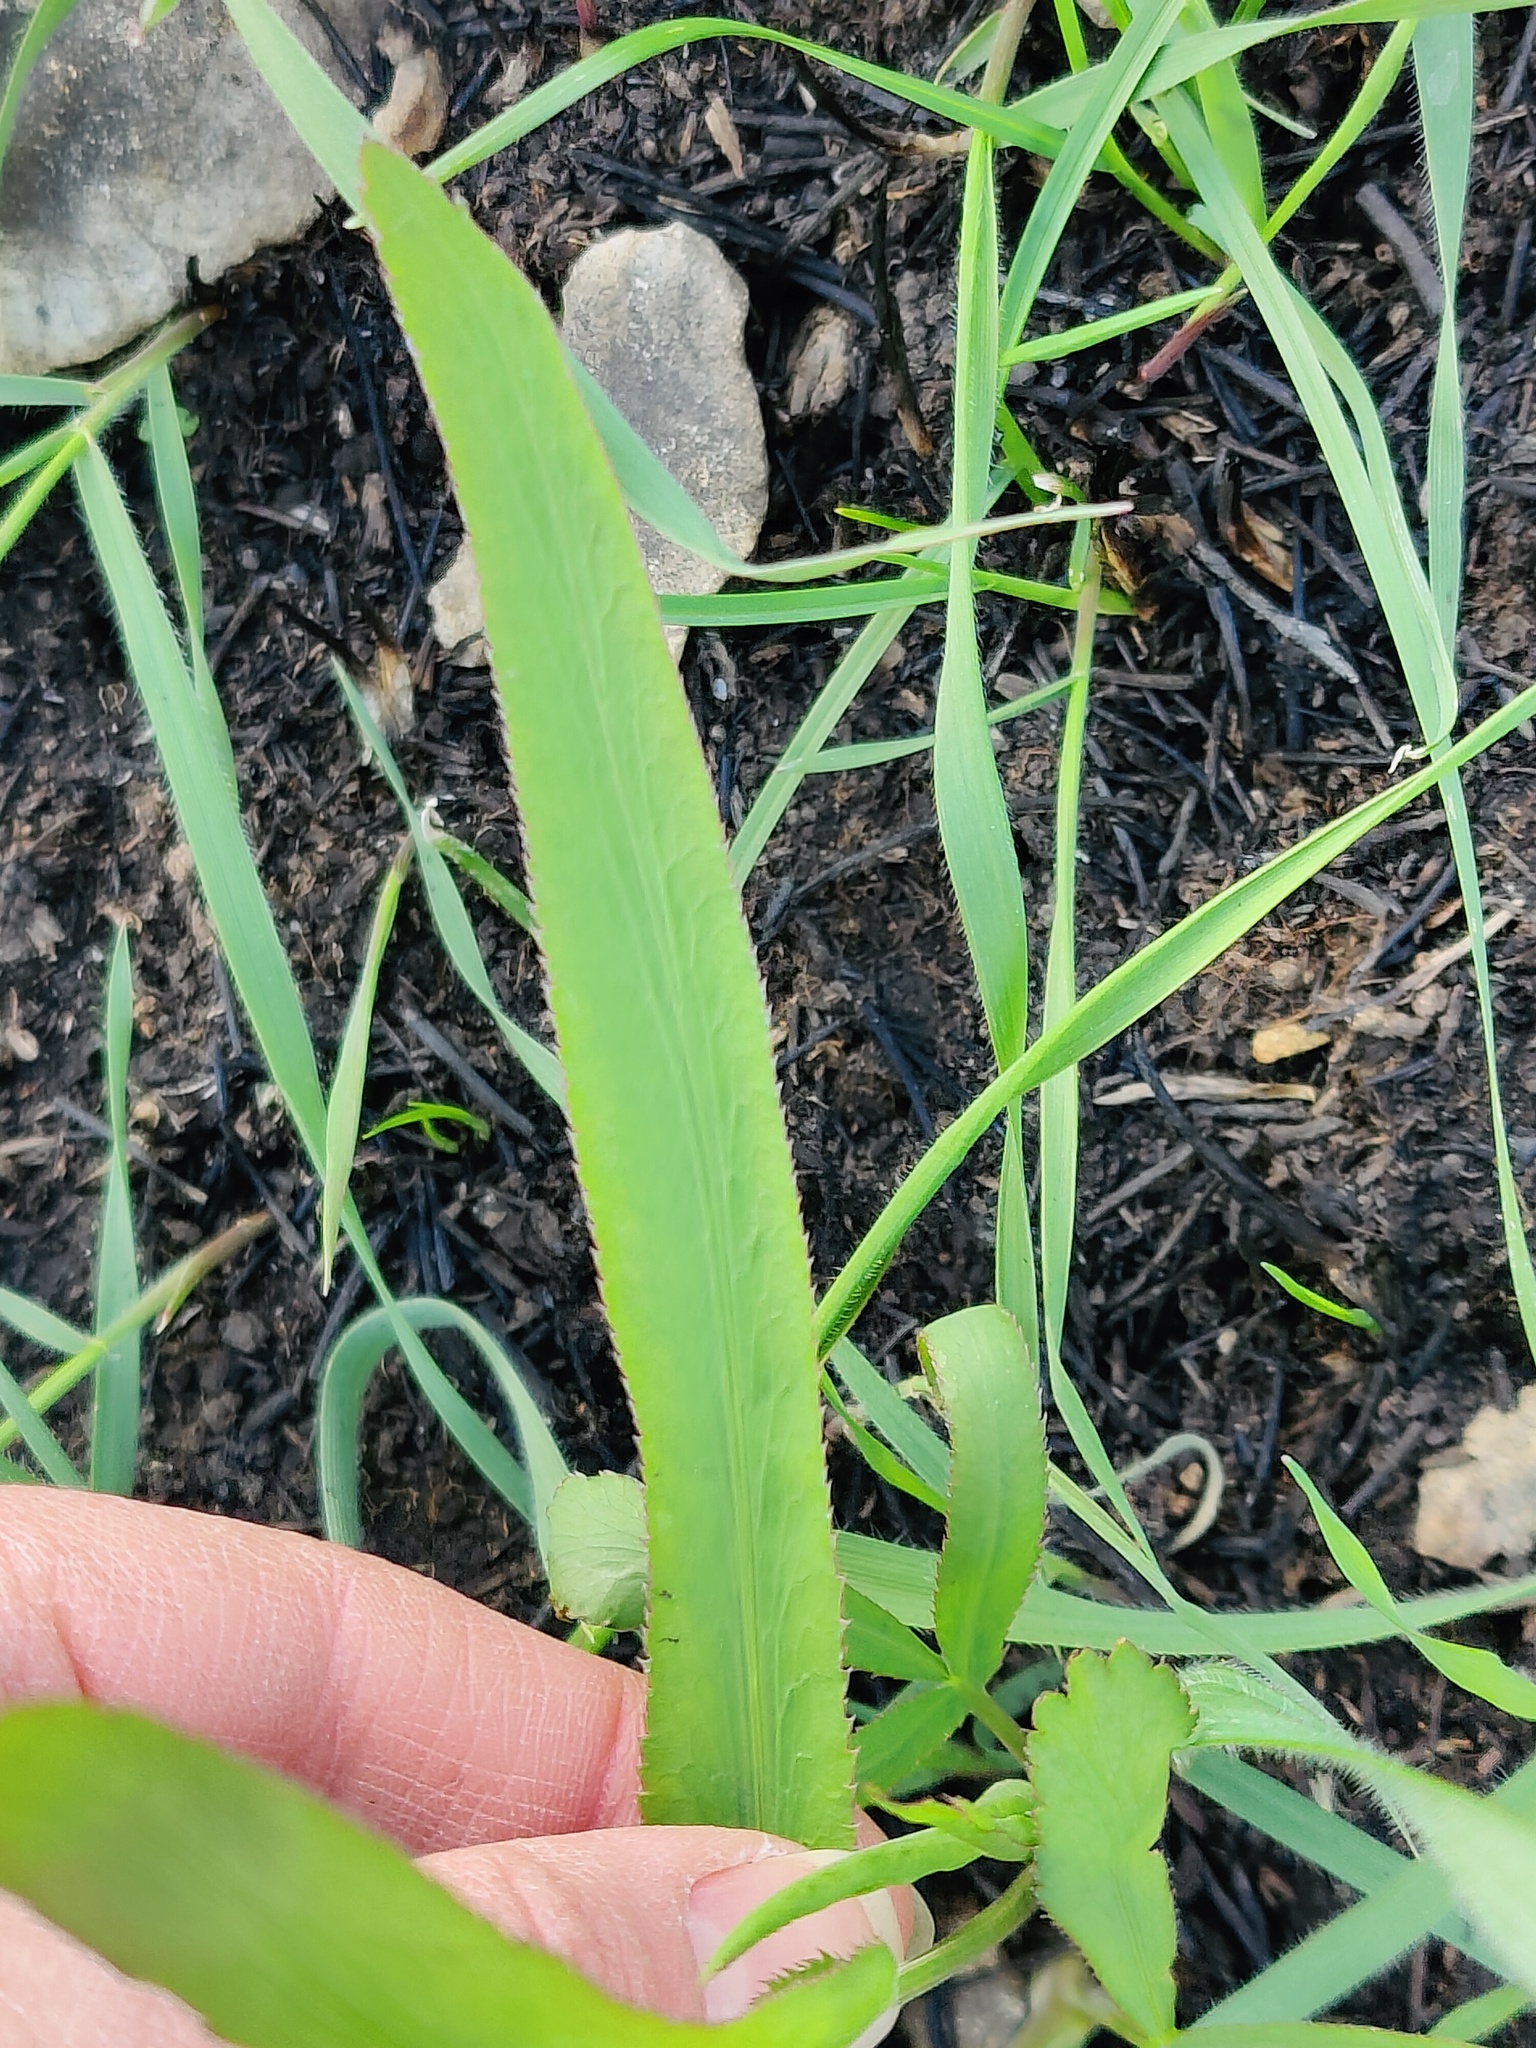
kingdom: Plantae
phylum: Tracheophyta
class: Magnoliopsida
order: Apiales
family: Apiaceae
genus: Falcaria
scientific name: Falcaria vulgaris
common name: Longleaf
